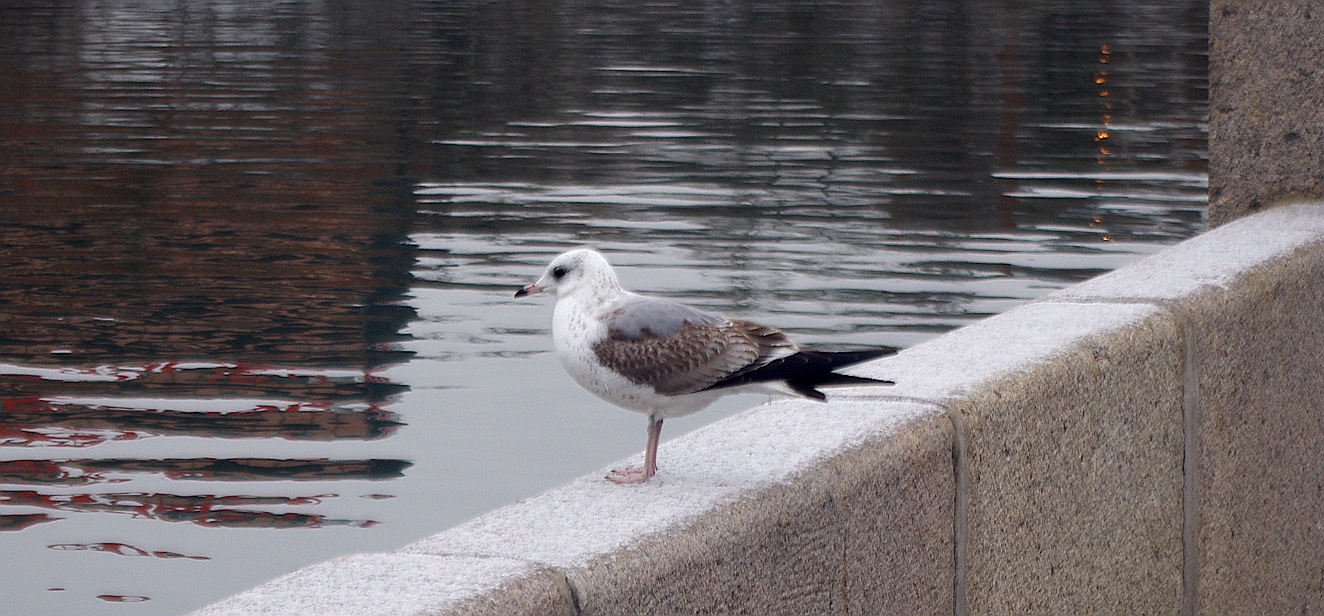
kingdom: Animalia
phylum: Chordata
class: Aves
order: Charadriiformes
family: Laridae
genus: Larus
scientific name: Larus canus
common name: Mew gull
